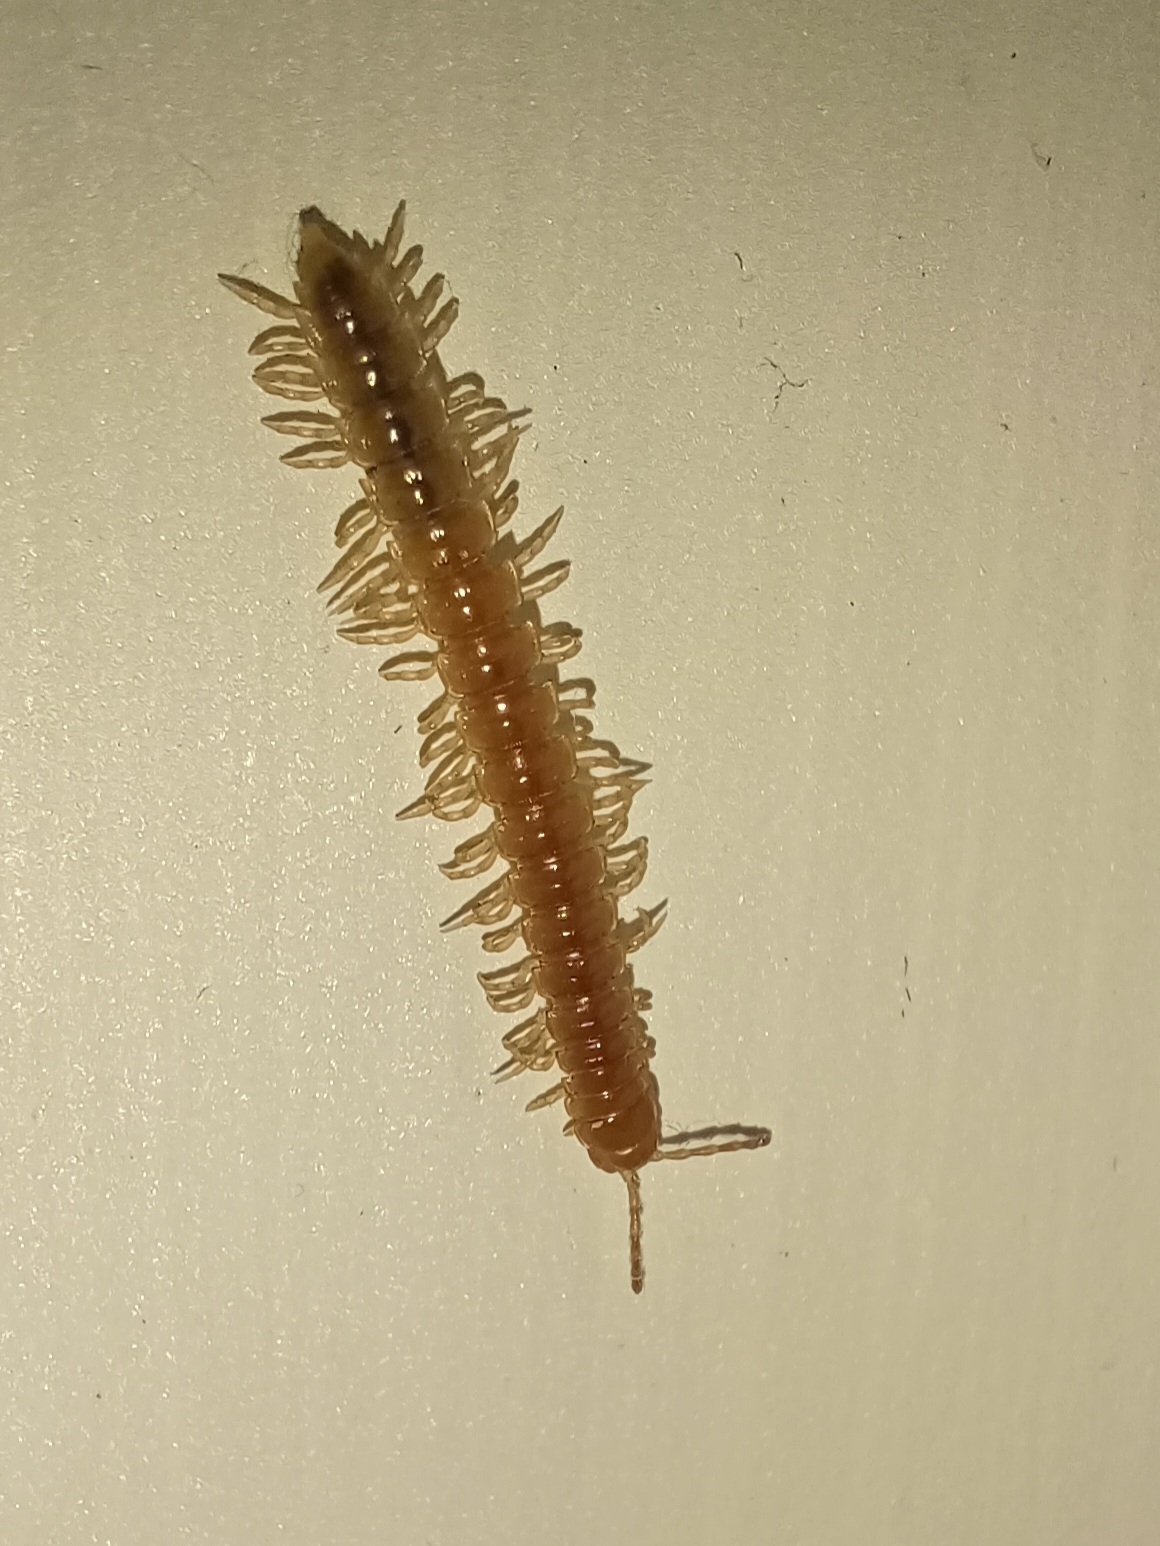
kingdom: Animalia
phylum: Arthropoda
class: Diplopoda
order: Polydesmida
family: Paradoxosomatidae
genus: Oxidus
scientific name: Oxidus gracilis
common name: Greenhouse millipede
